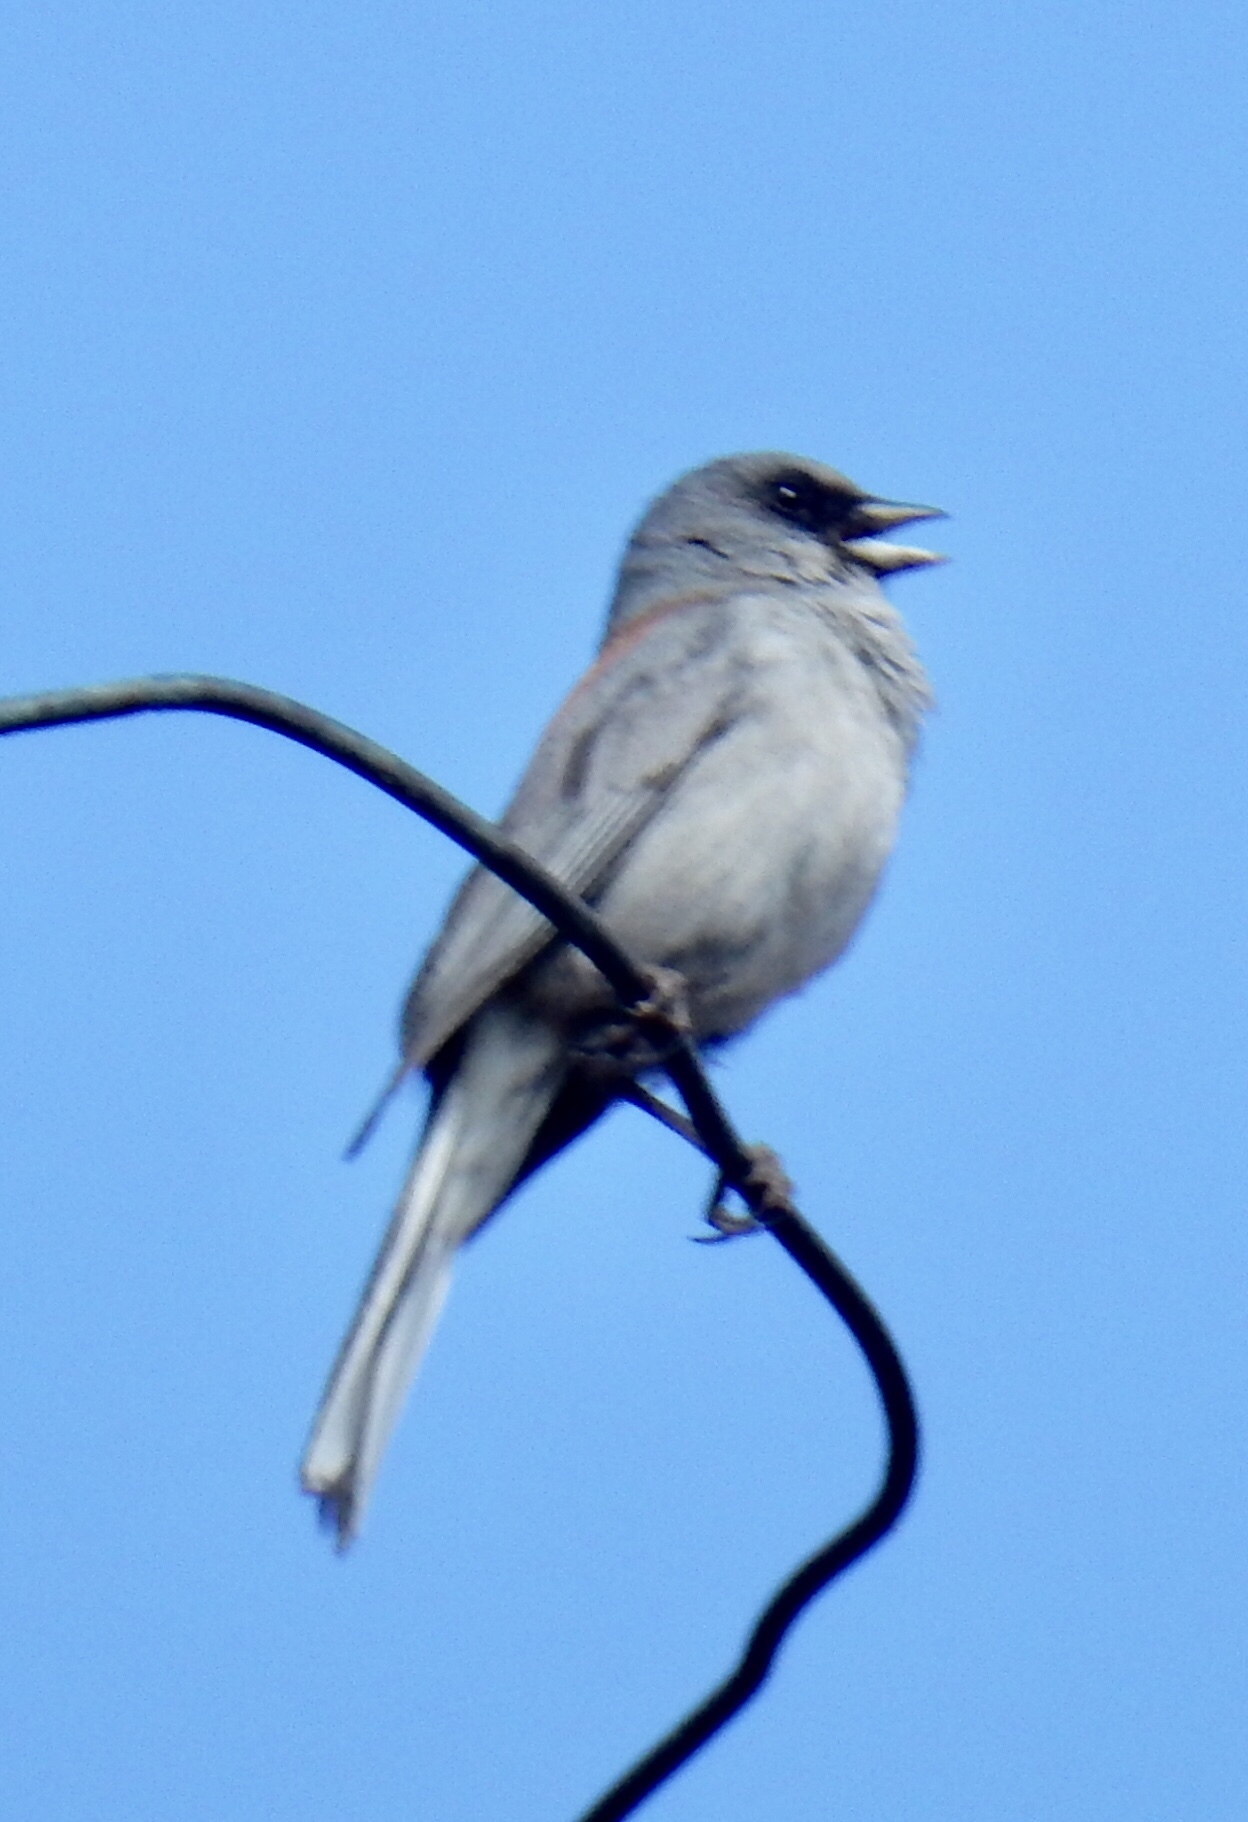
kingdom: Animalia
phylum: Chordata
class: Aves
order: Passeriformes
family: Passerellidae
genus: Junco
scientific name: Junco hyemalis
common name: Dark-eyed junco
